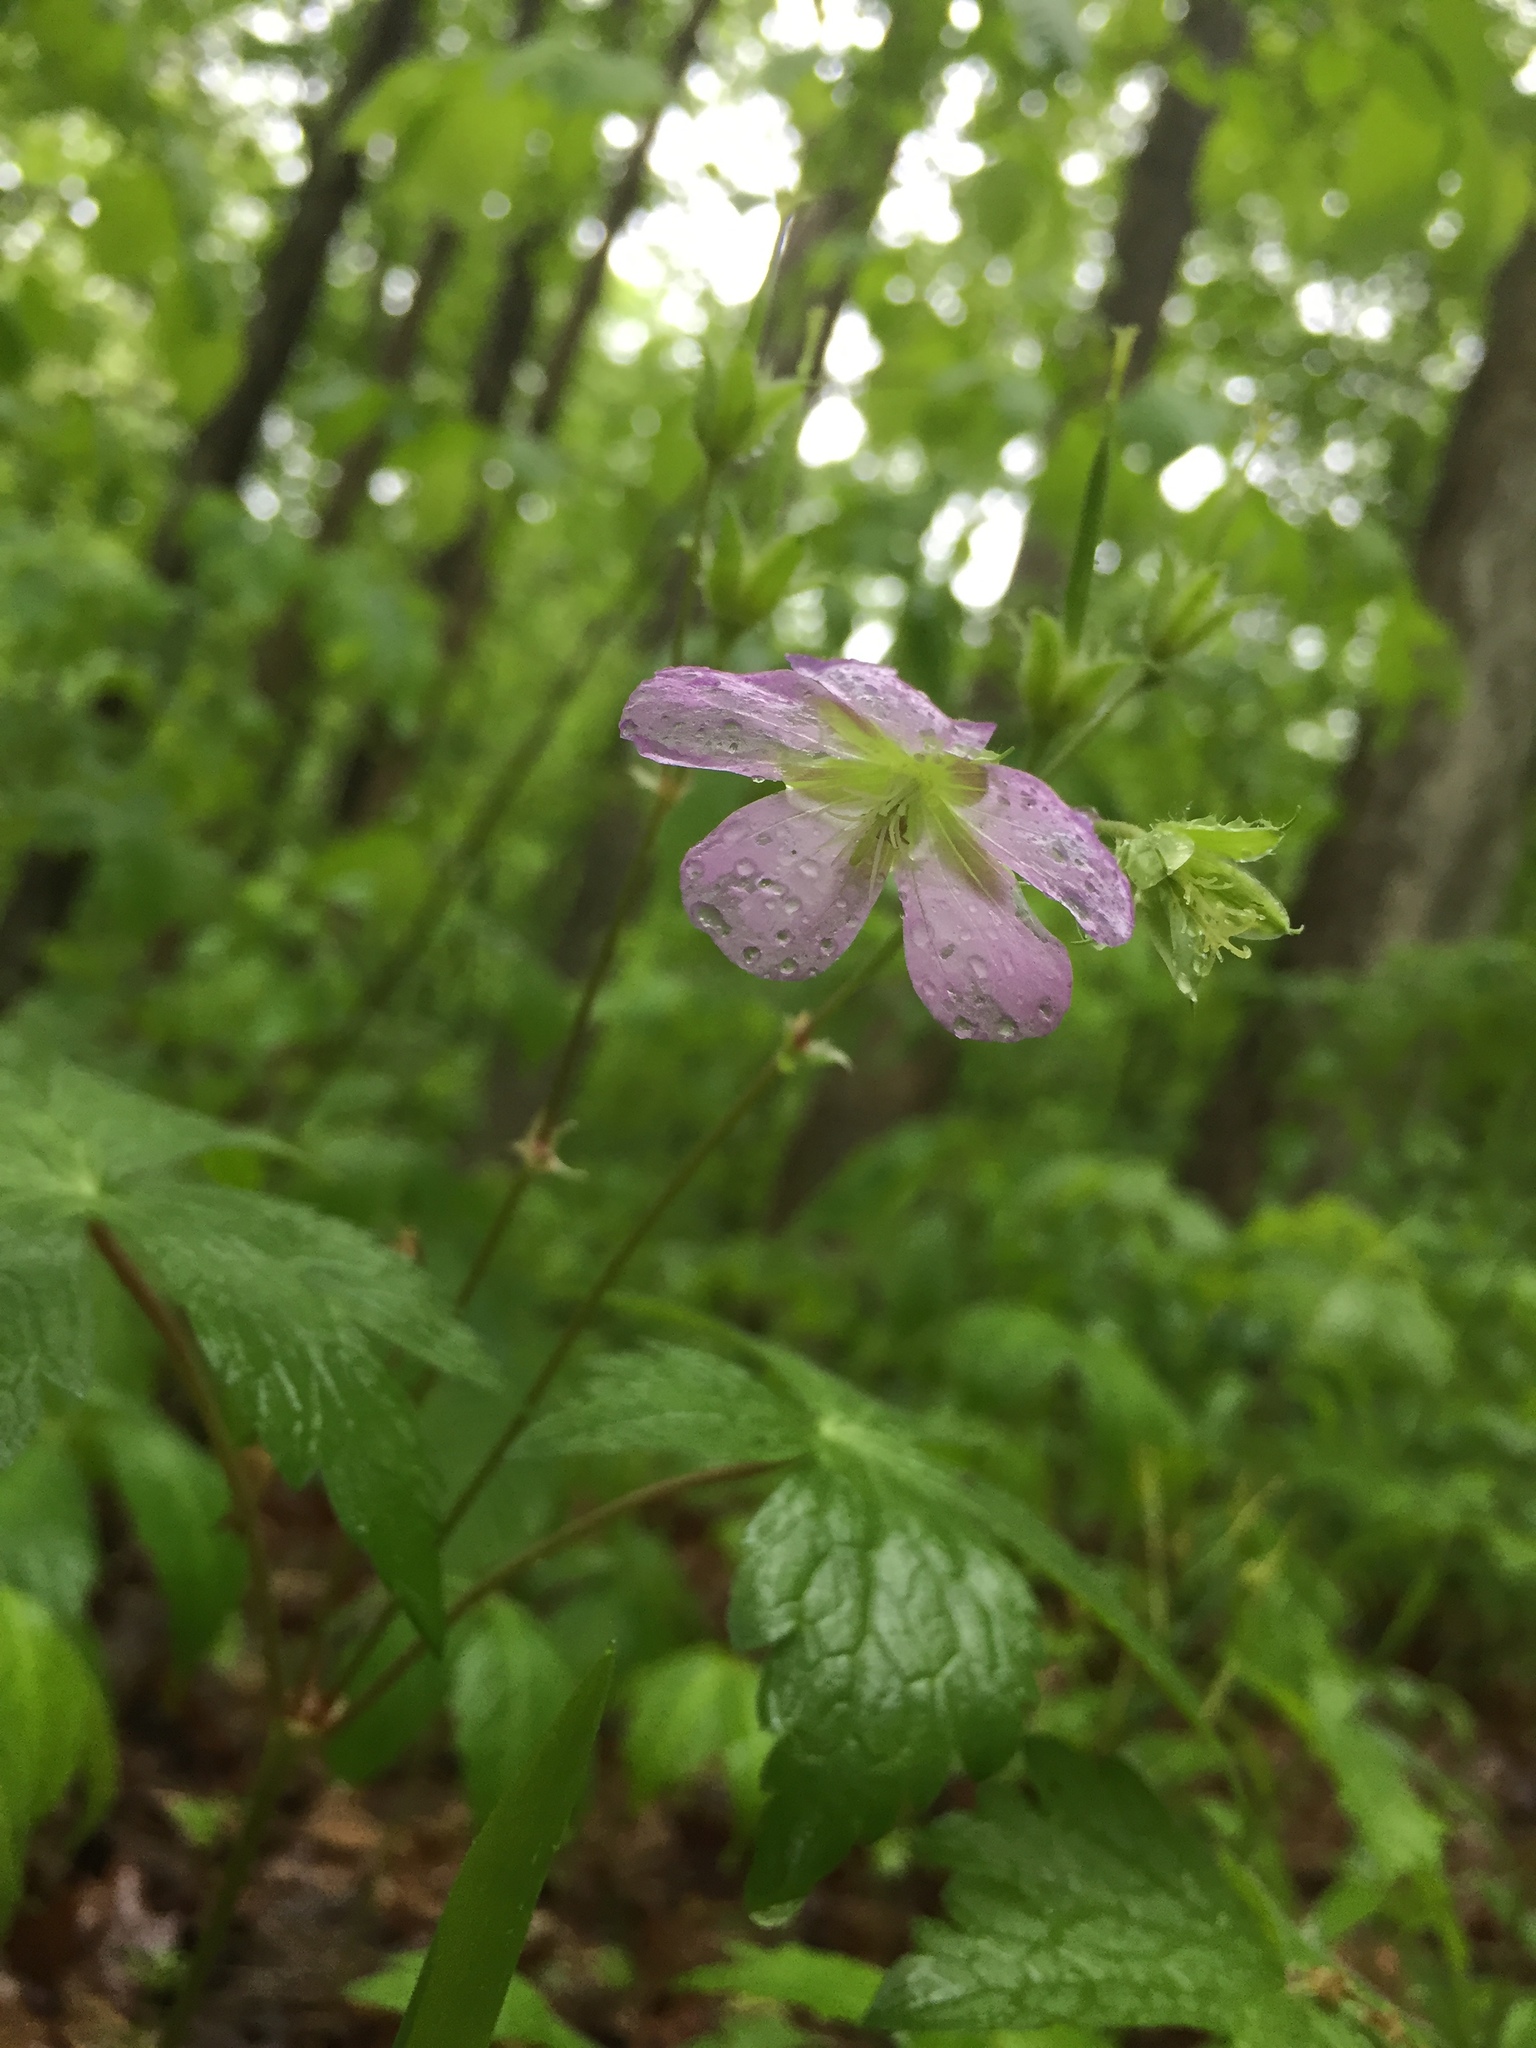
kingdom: Plantae
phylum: Tracheophyta
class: Magnoliopsida
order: Geraniales
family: Geraniaceae
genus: Geranium
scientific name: Geranium maculatum
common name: Spotted geranium
